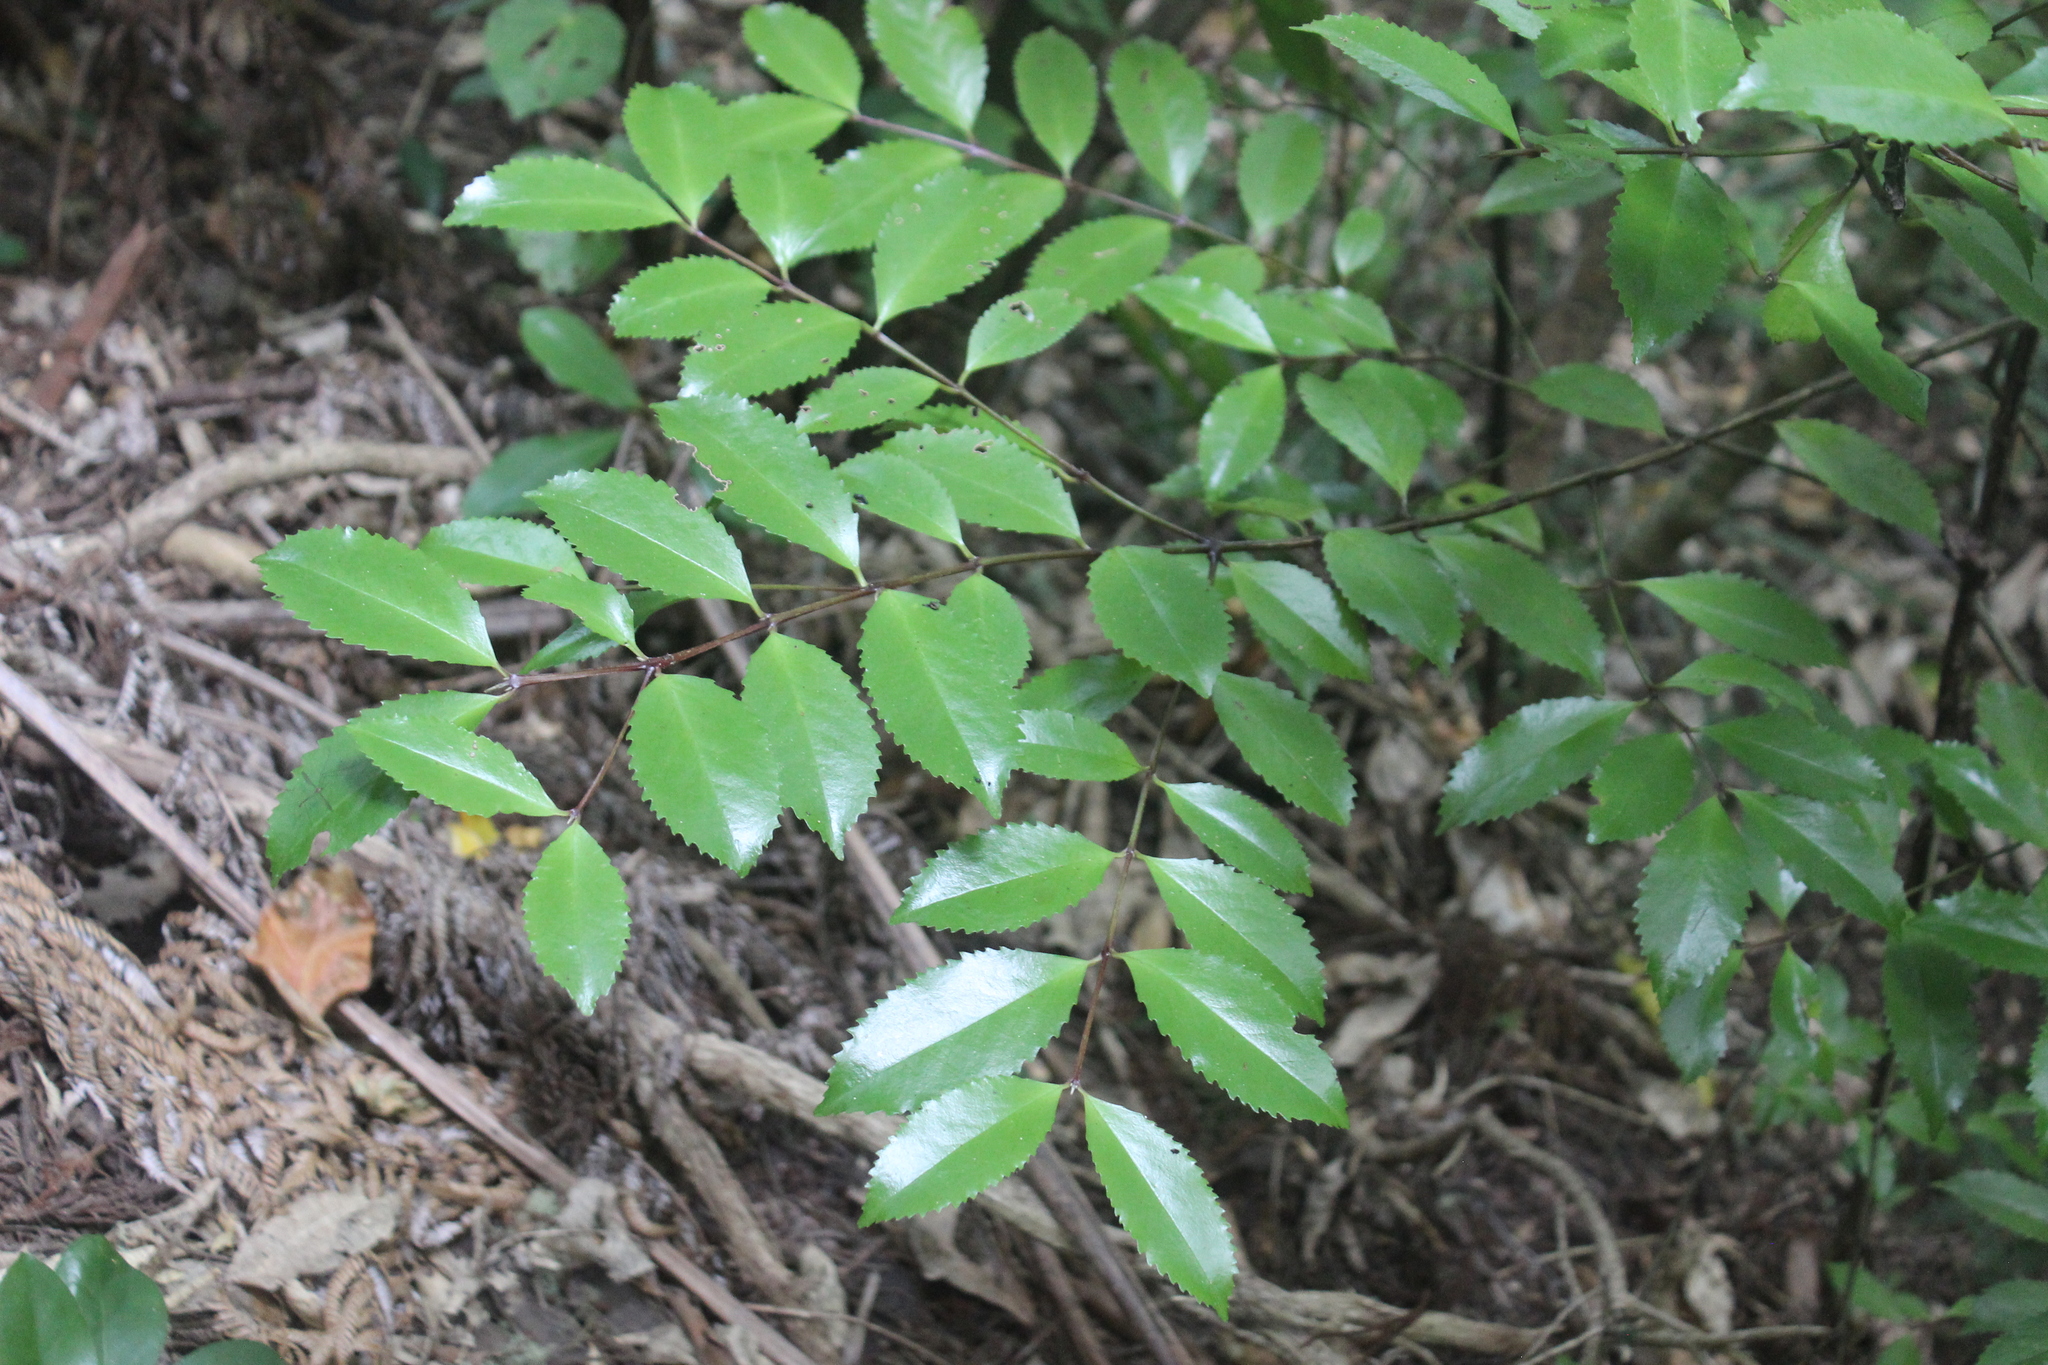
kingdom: Plantae
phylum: Tracheophyta
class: Magnoliopsida
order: Laurales
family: Atherospermataceae
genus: Laurelia
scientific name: Laurelia novae-zelandiae
